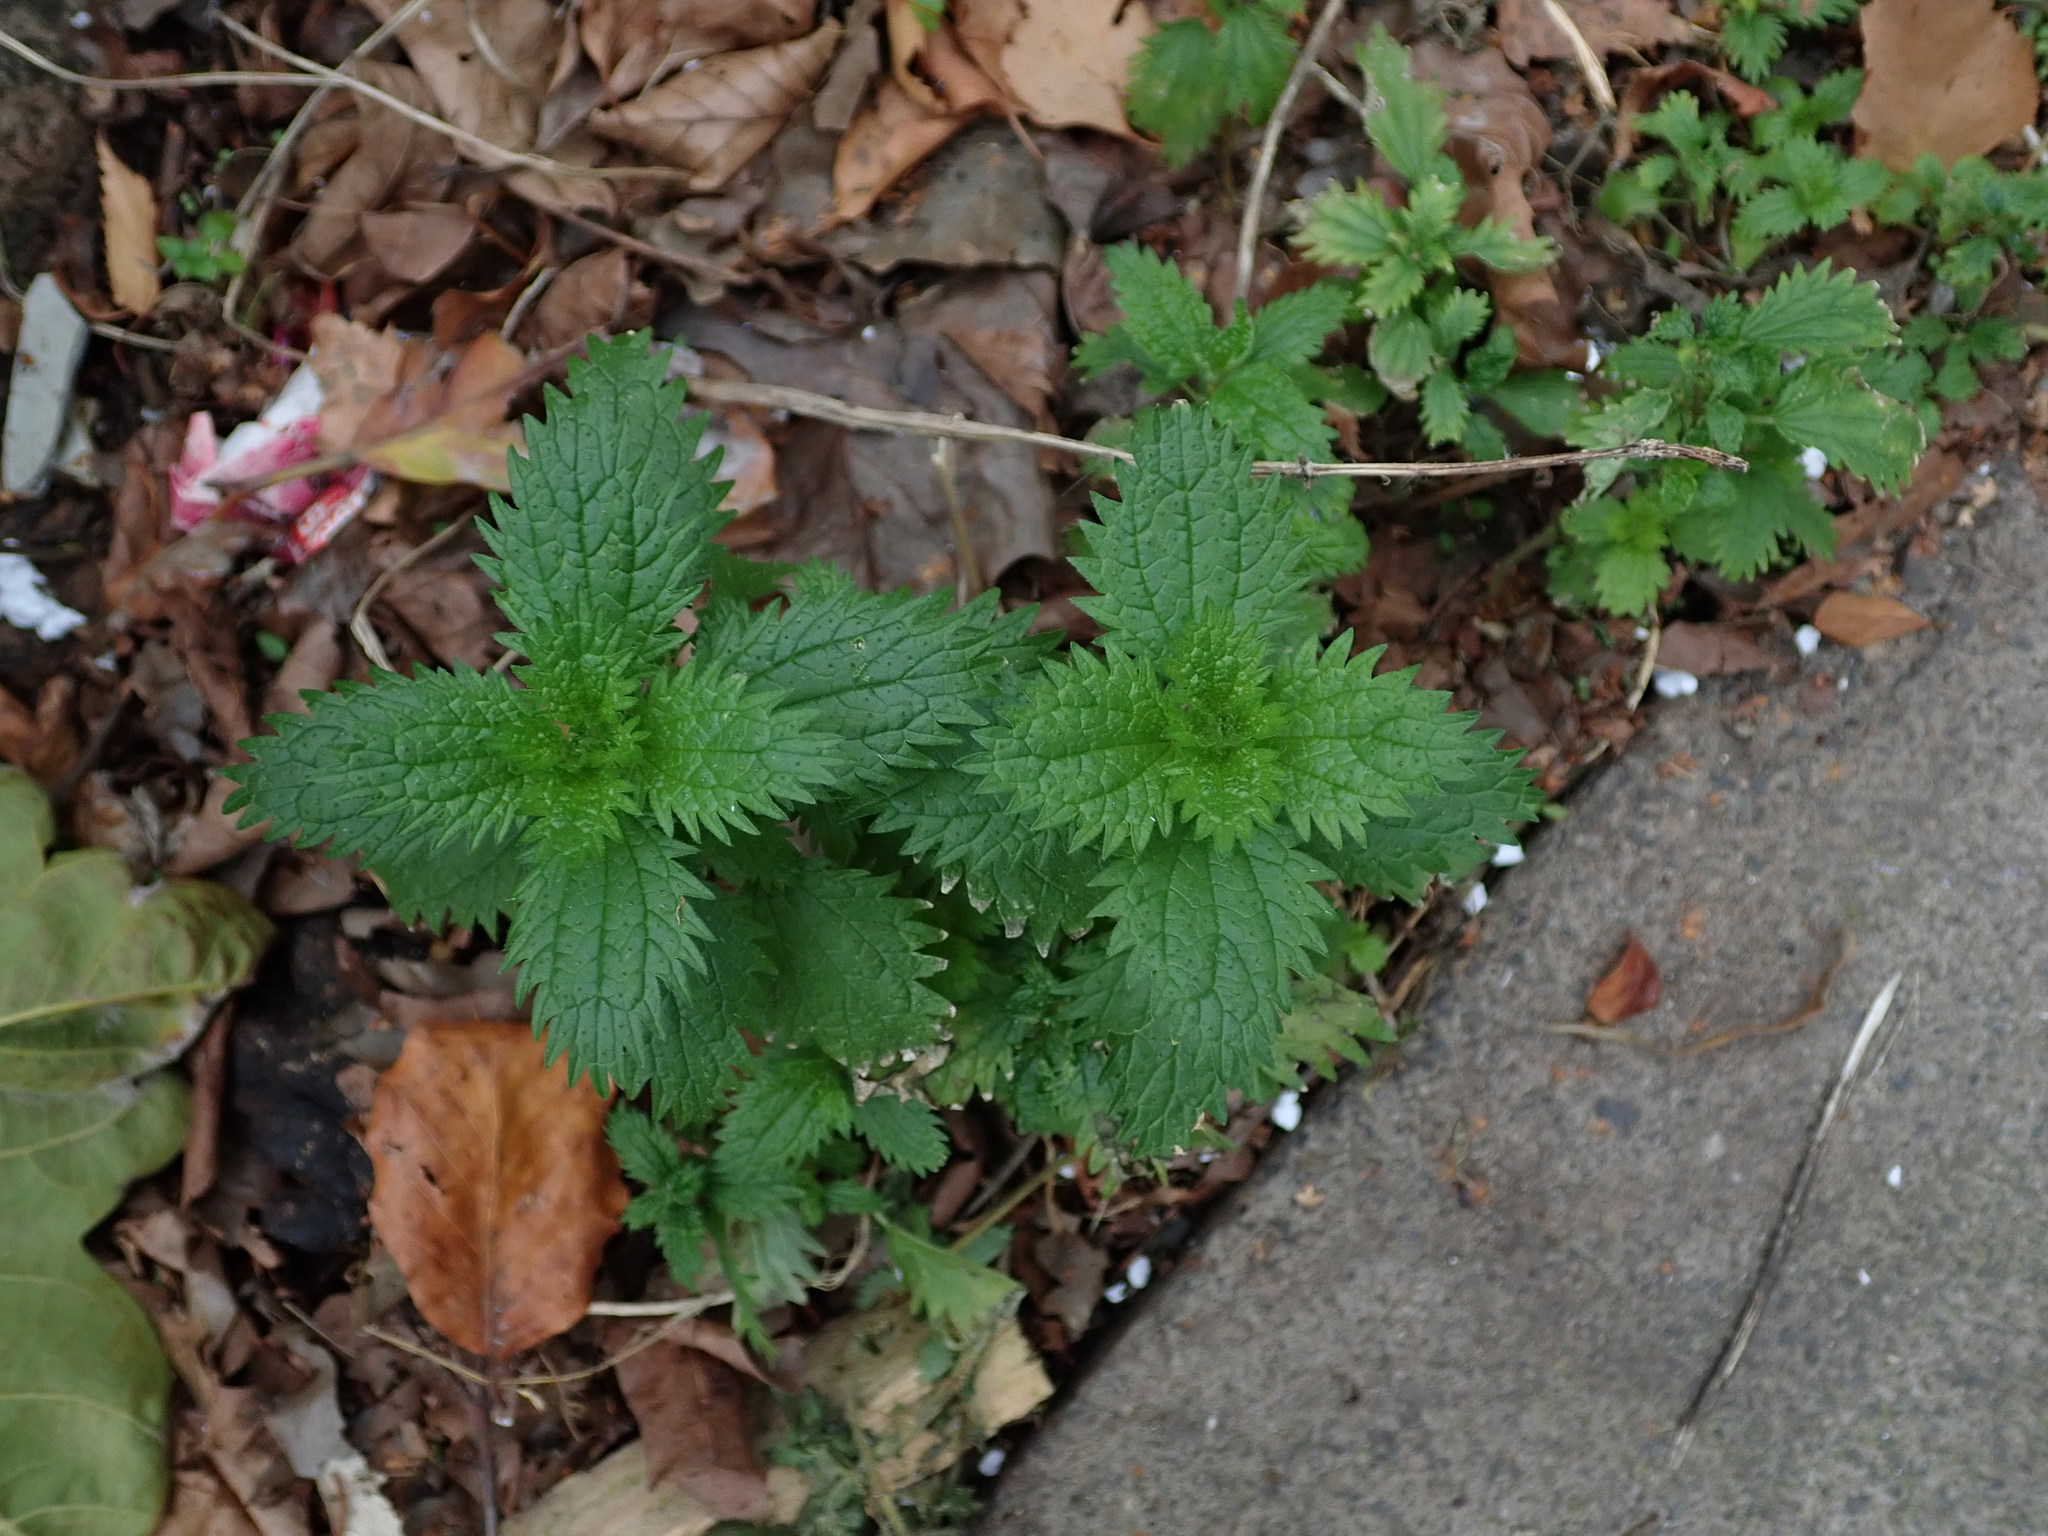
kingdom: Plantae
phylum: Tracheophyta
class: Magnoliopsida
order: Rosales
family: Urticaceae
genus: Urtica
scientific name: Urtica urens
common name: Dwarf nettle
